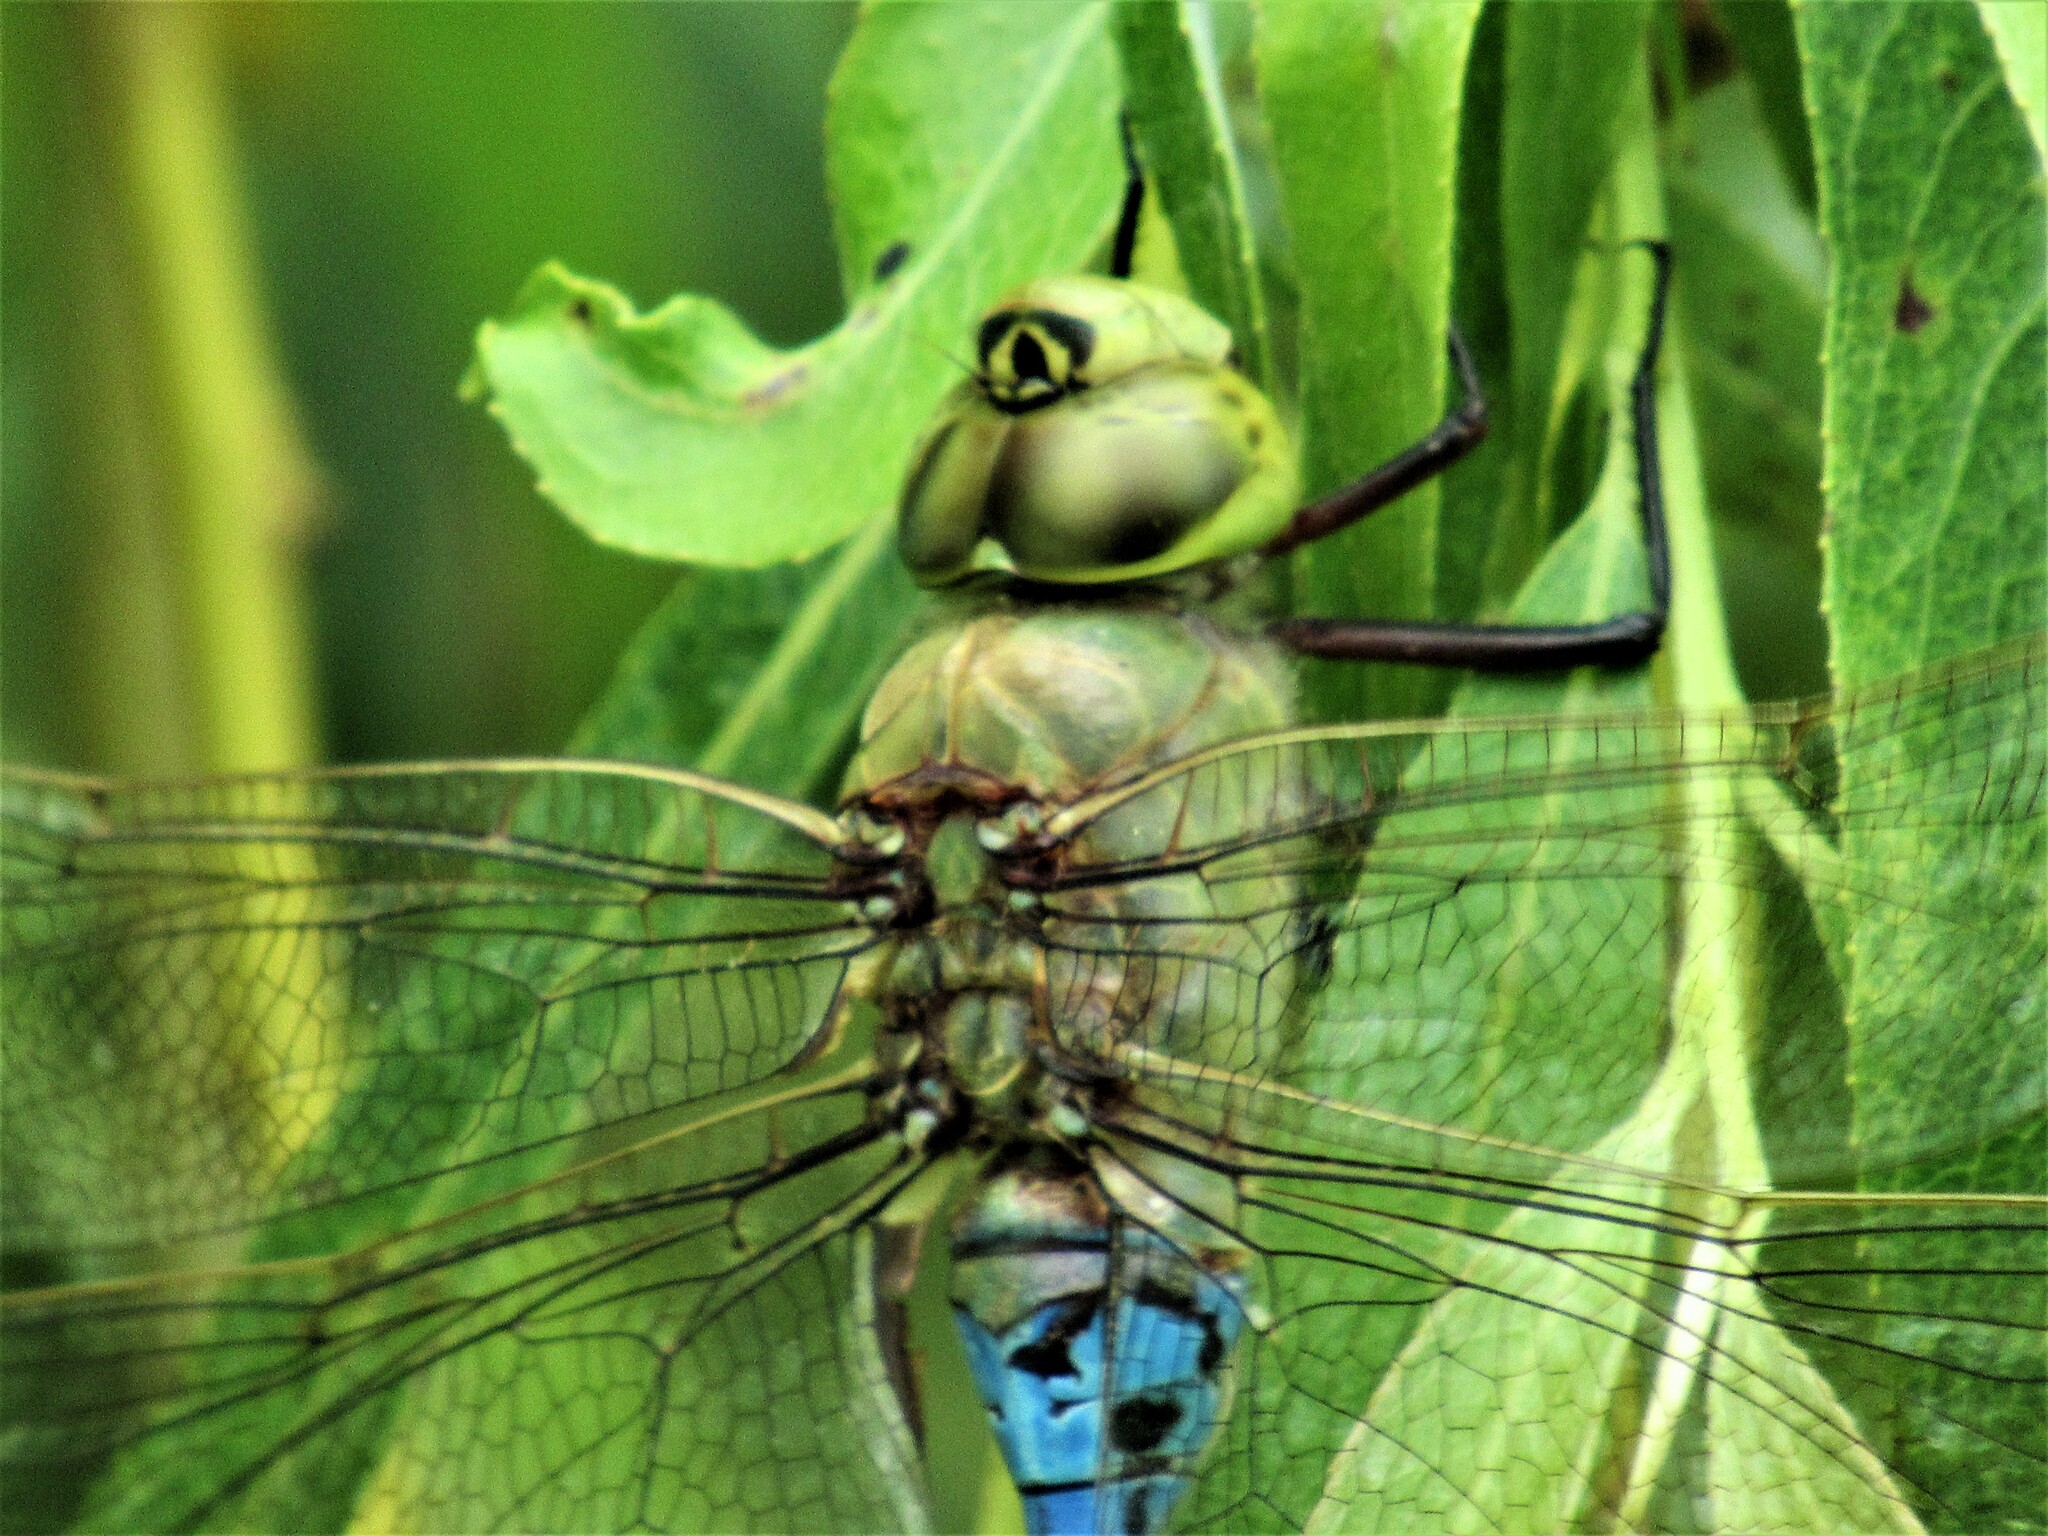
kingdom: Animalia
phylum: Arthropoda
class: Insecta
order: Odonata
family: Aeshnidae
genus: Anax
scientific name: Anax junius
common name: Common green darner
